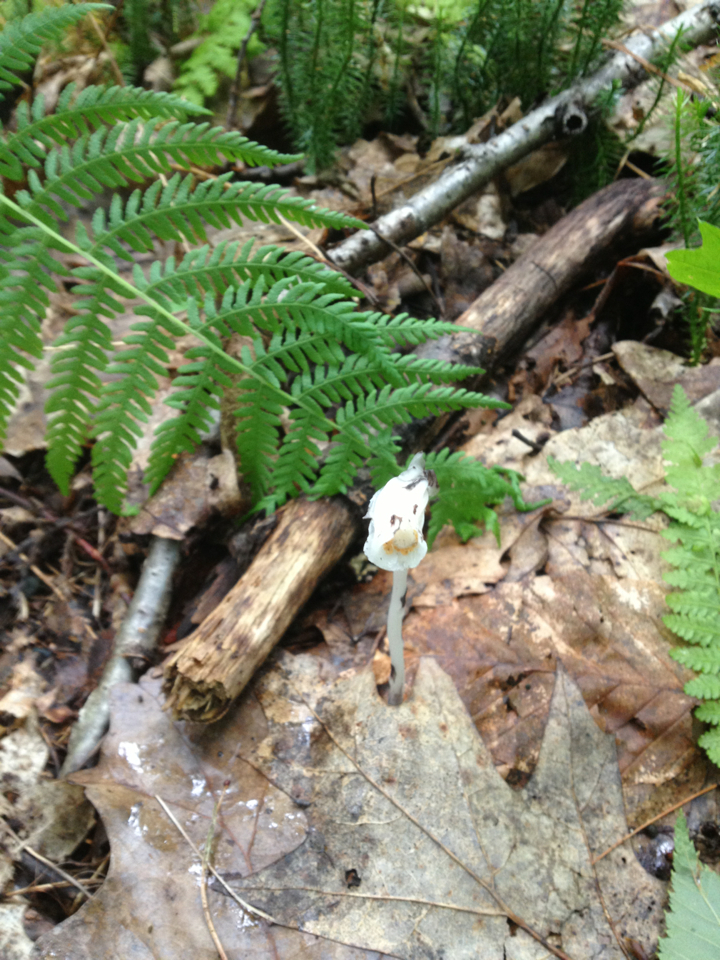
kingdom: Plantae
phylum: Tracheophyta
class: Magnoliopsida
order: Ericales
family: Ericaceae
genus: Monotropa
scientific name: Monotropa uniflora
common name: Convulsion root
